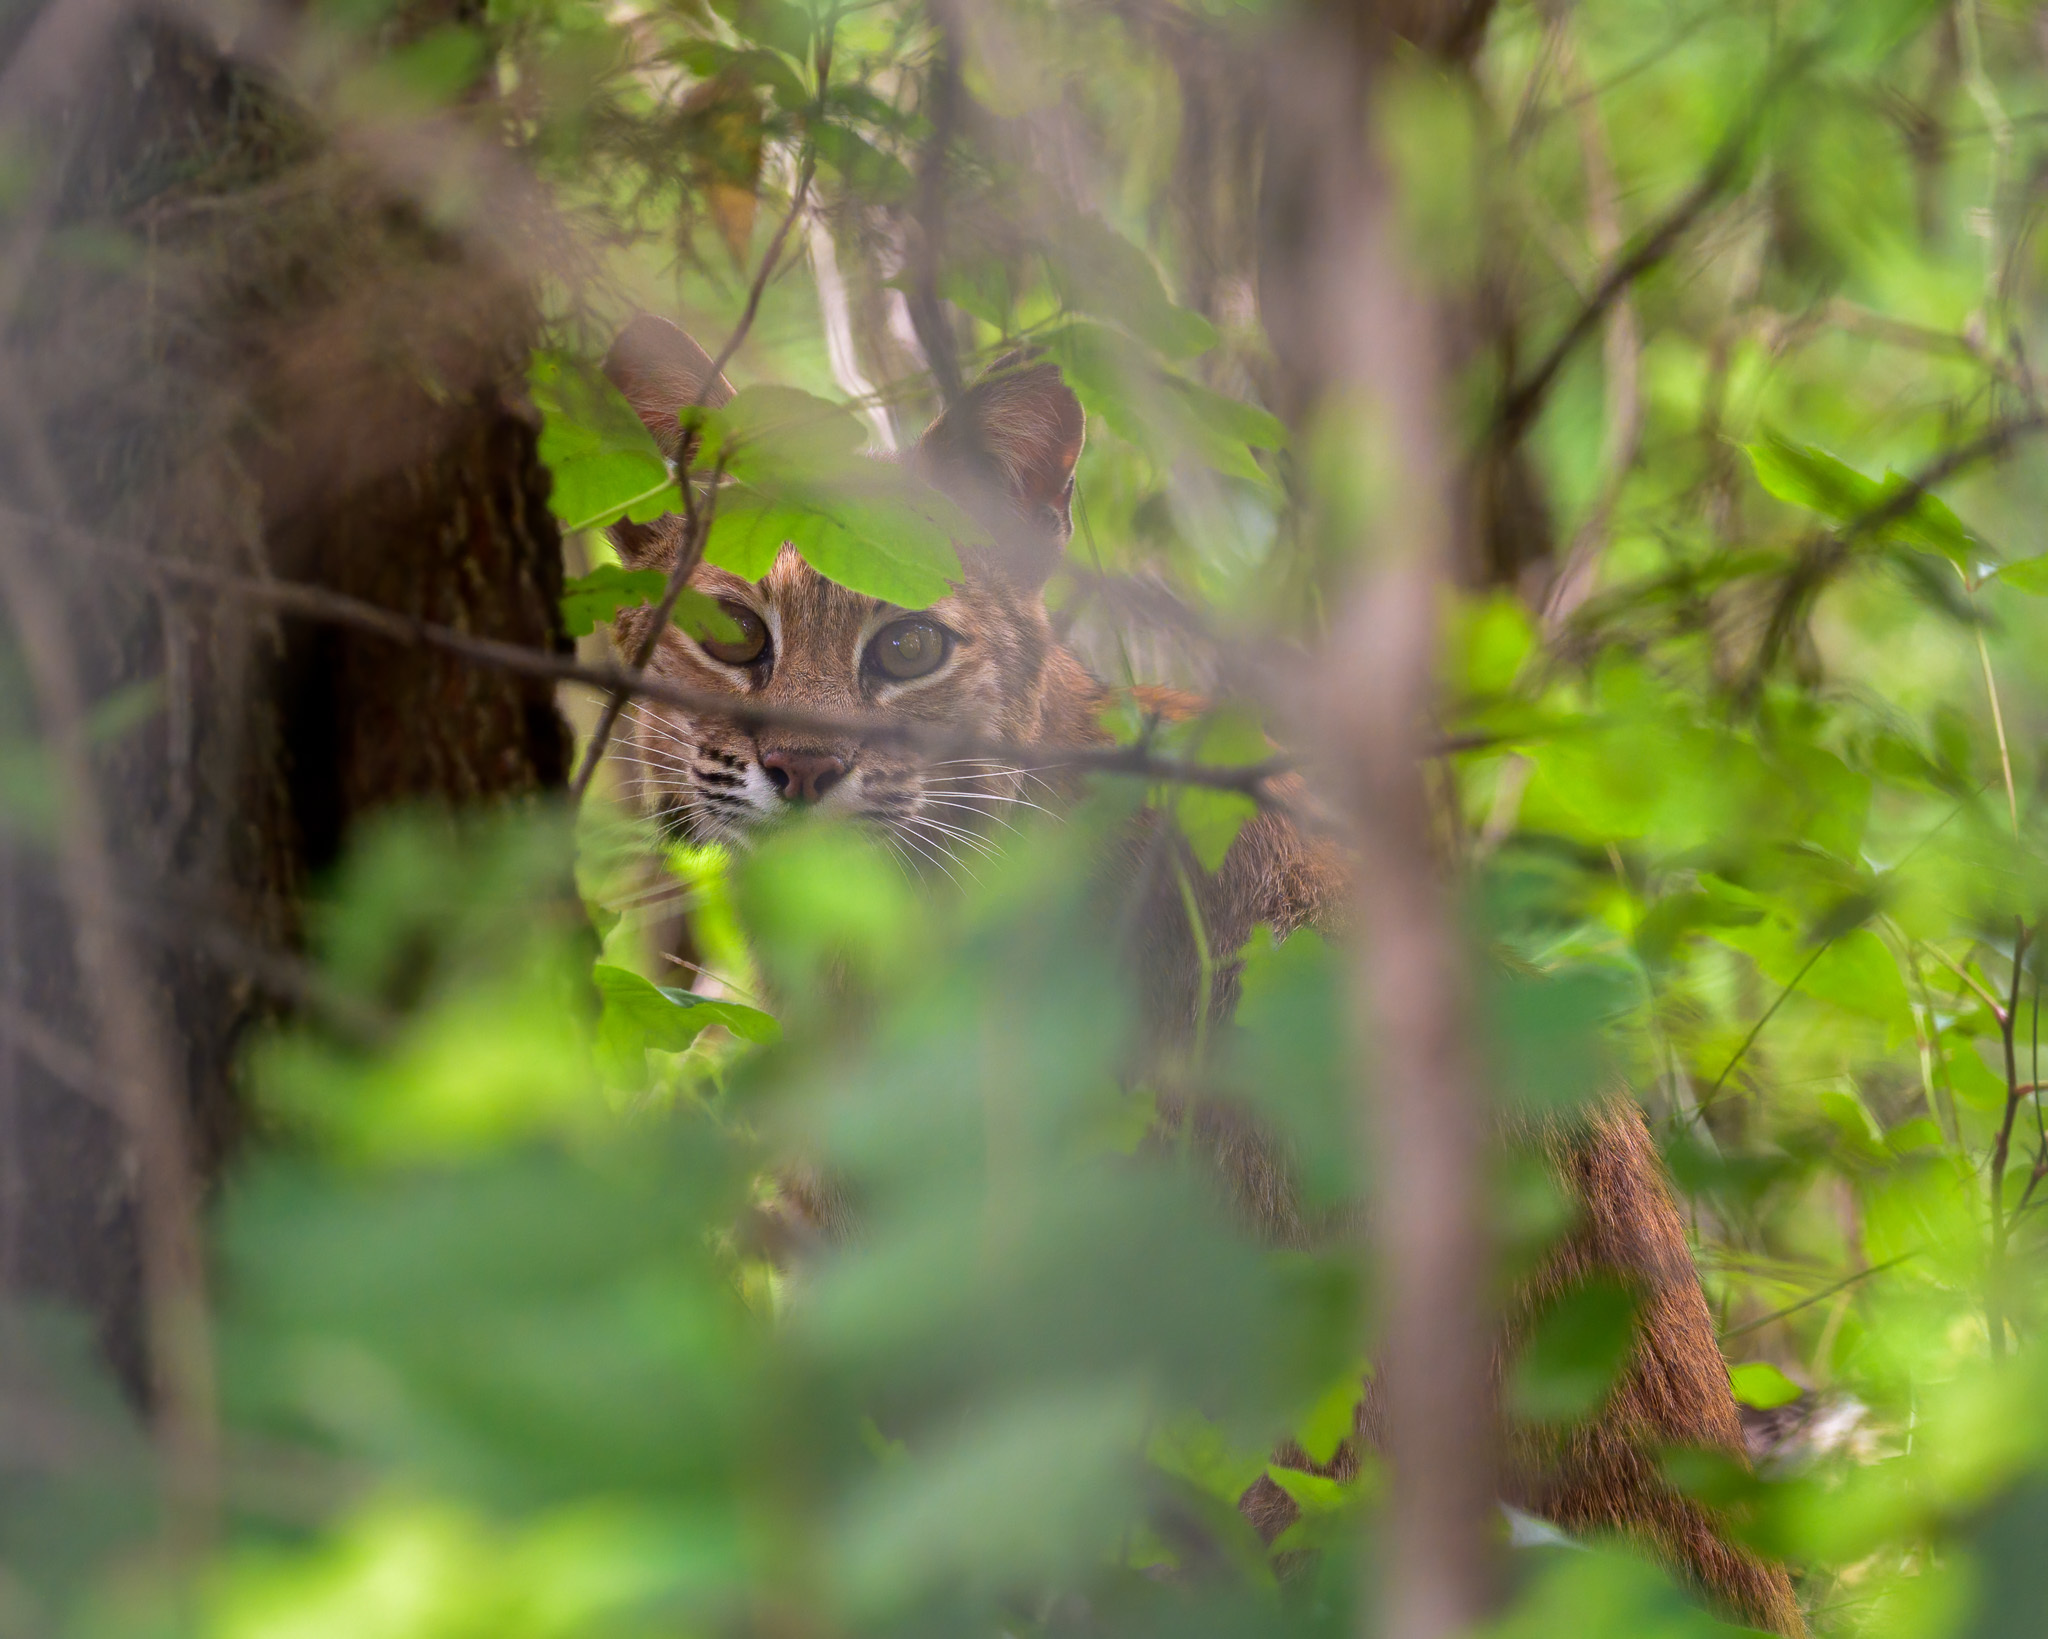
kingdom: Animalia
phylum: Chordata
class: Mammalia
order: Carnivora
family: Felidae
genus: Lynx
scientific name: Lynx rufus
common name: Bobcat
